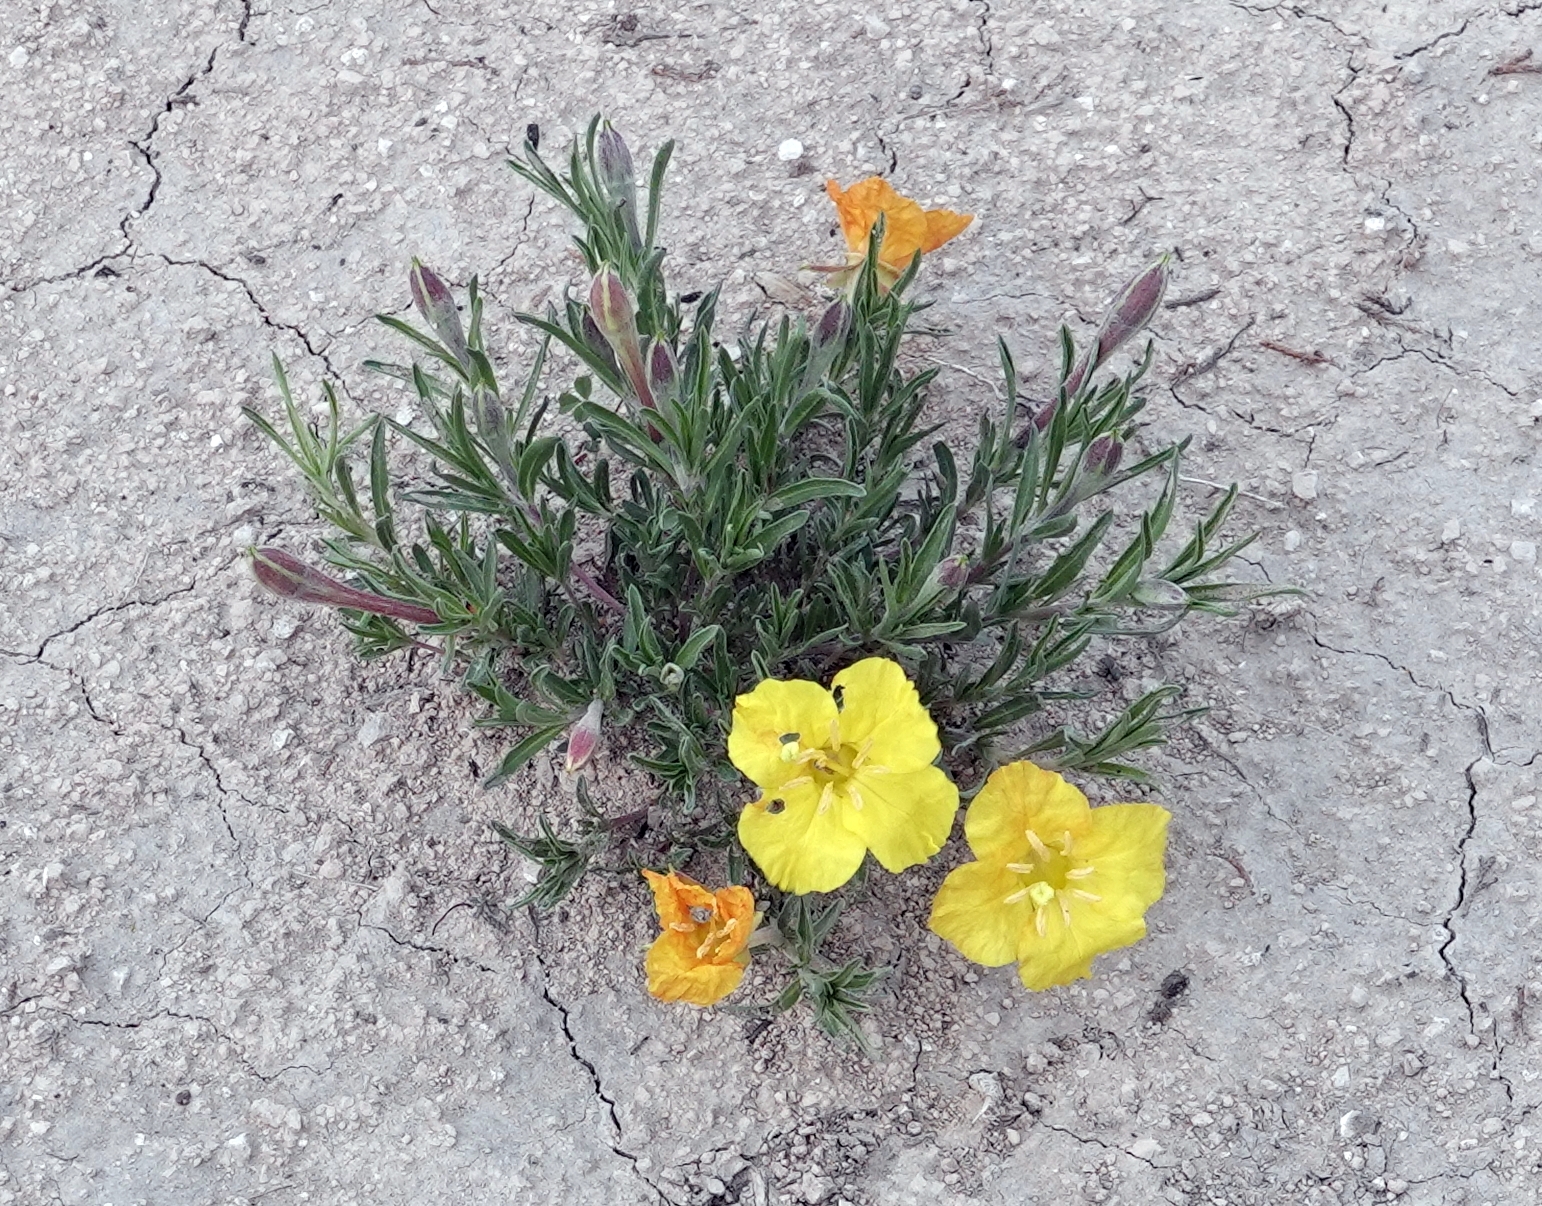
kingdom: Plantae
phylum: Tracheophyta
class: Magnoliopsida
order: Myrtales
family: Onagraceae
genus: Oenothera
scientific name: Oenothera lavandulifolia
